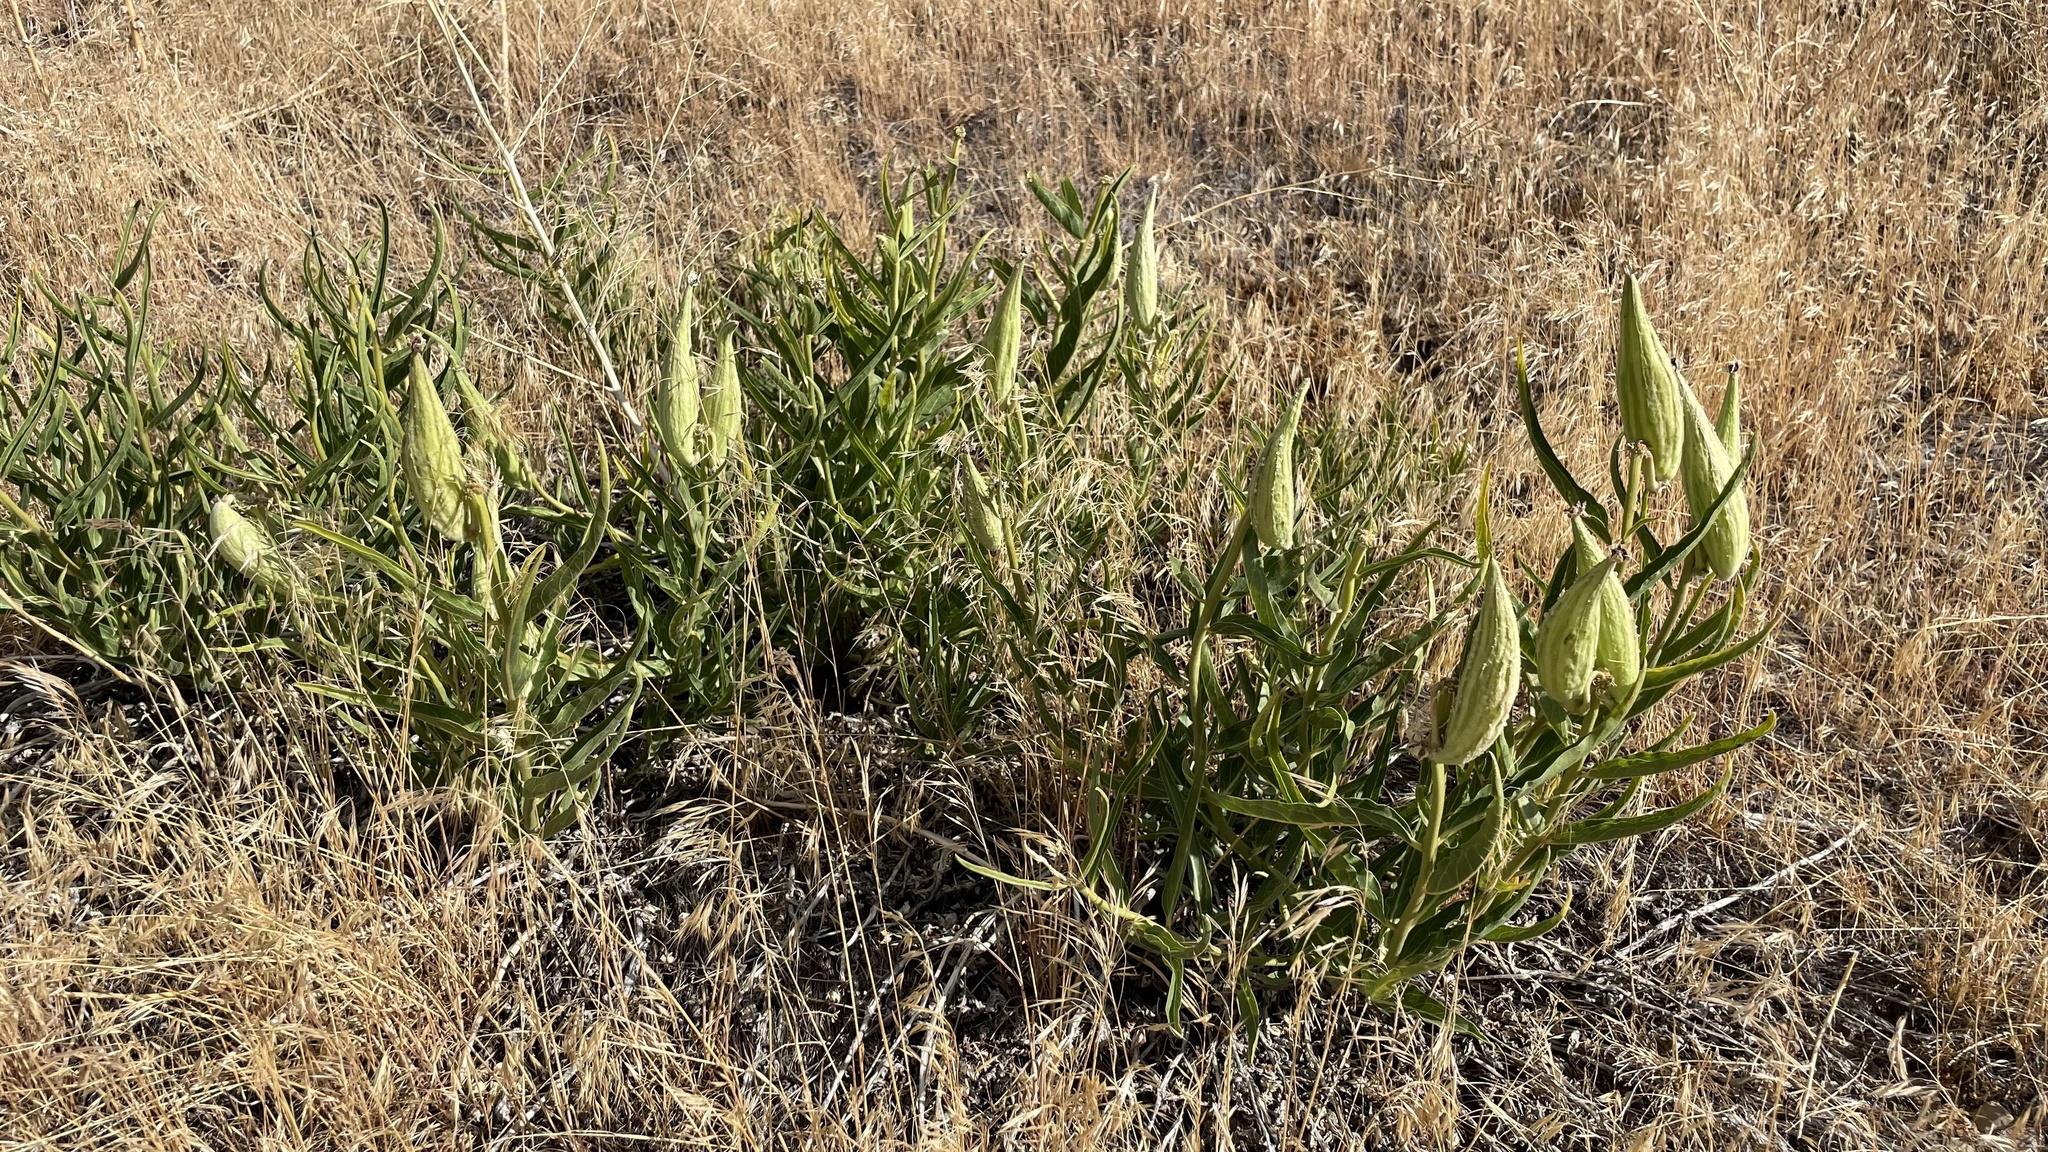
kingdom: Plantae
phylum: Tracheophyta
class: Magnoliopsida
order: Gentianales
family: Apocynaceae
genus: Asclepias
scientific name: Asclepias asperula
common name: Antelope horns
